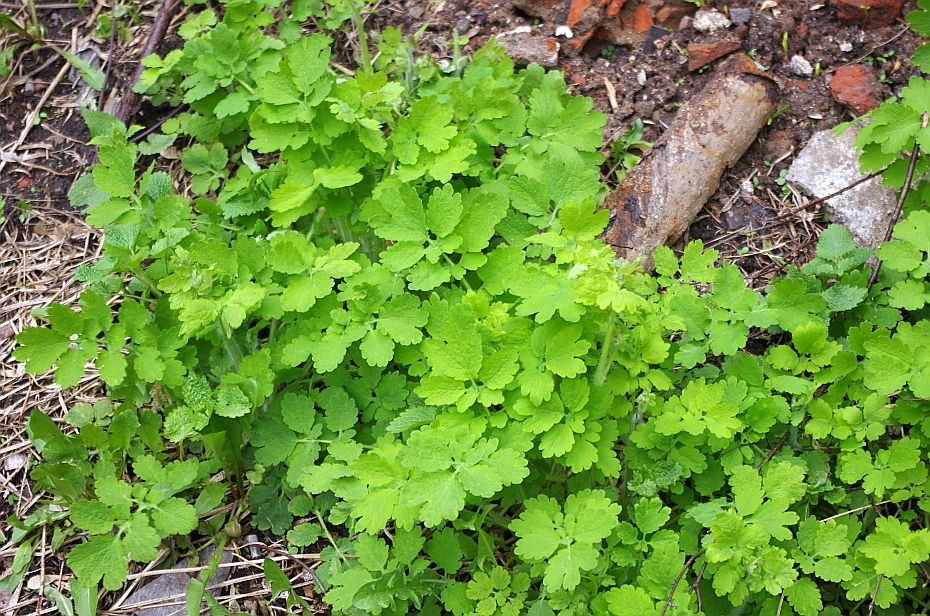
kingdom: Plantae
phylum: Tracheophyta
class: Magnoliopsida
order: Ranunculales
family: Papaveraceae
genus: Chelidonium
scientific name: Chelidonium majus
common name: Greater celandine
